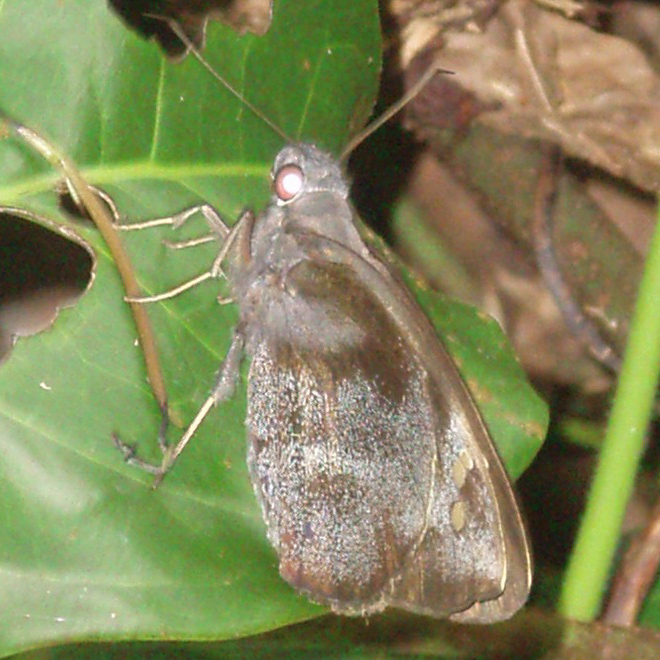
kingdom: Animalia
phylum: Arthropoda
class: Insecta
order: Lepidoptera
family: Hesperiidae
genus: Gangara
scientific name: Gangara thyrsis
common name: Giant redeye
